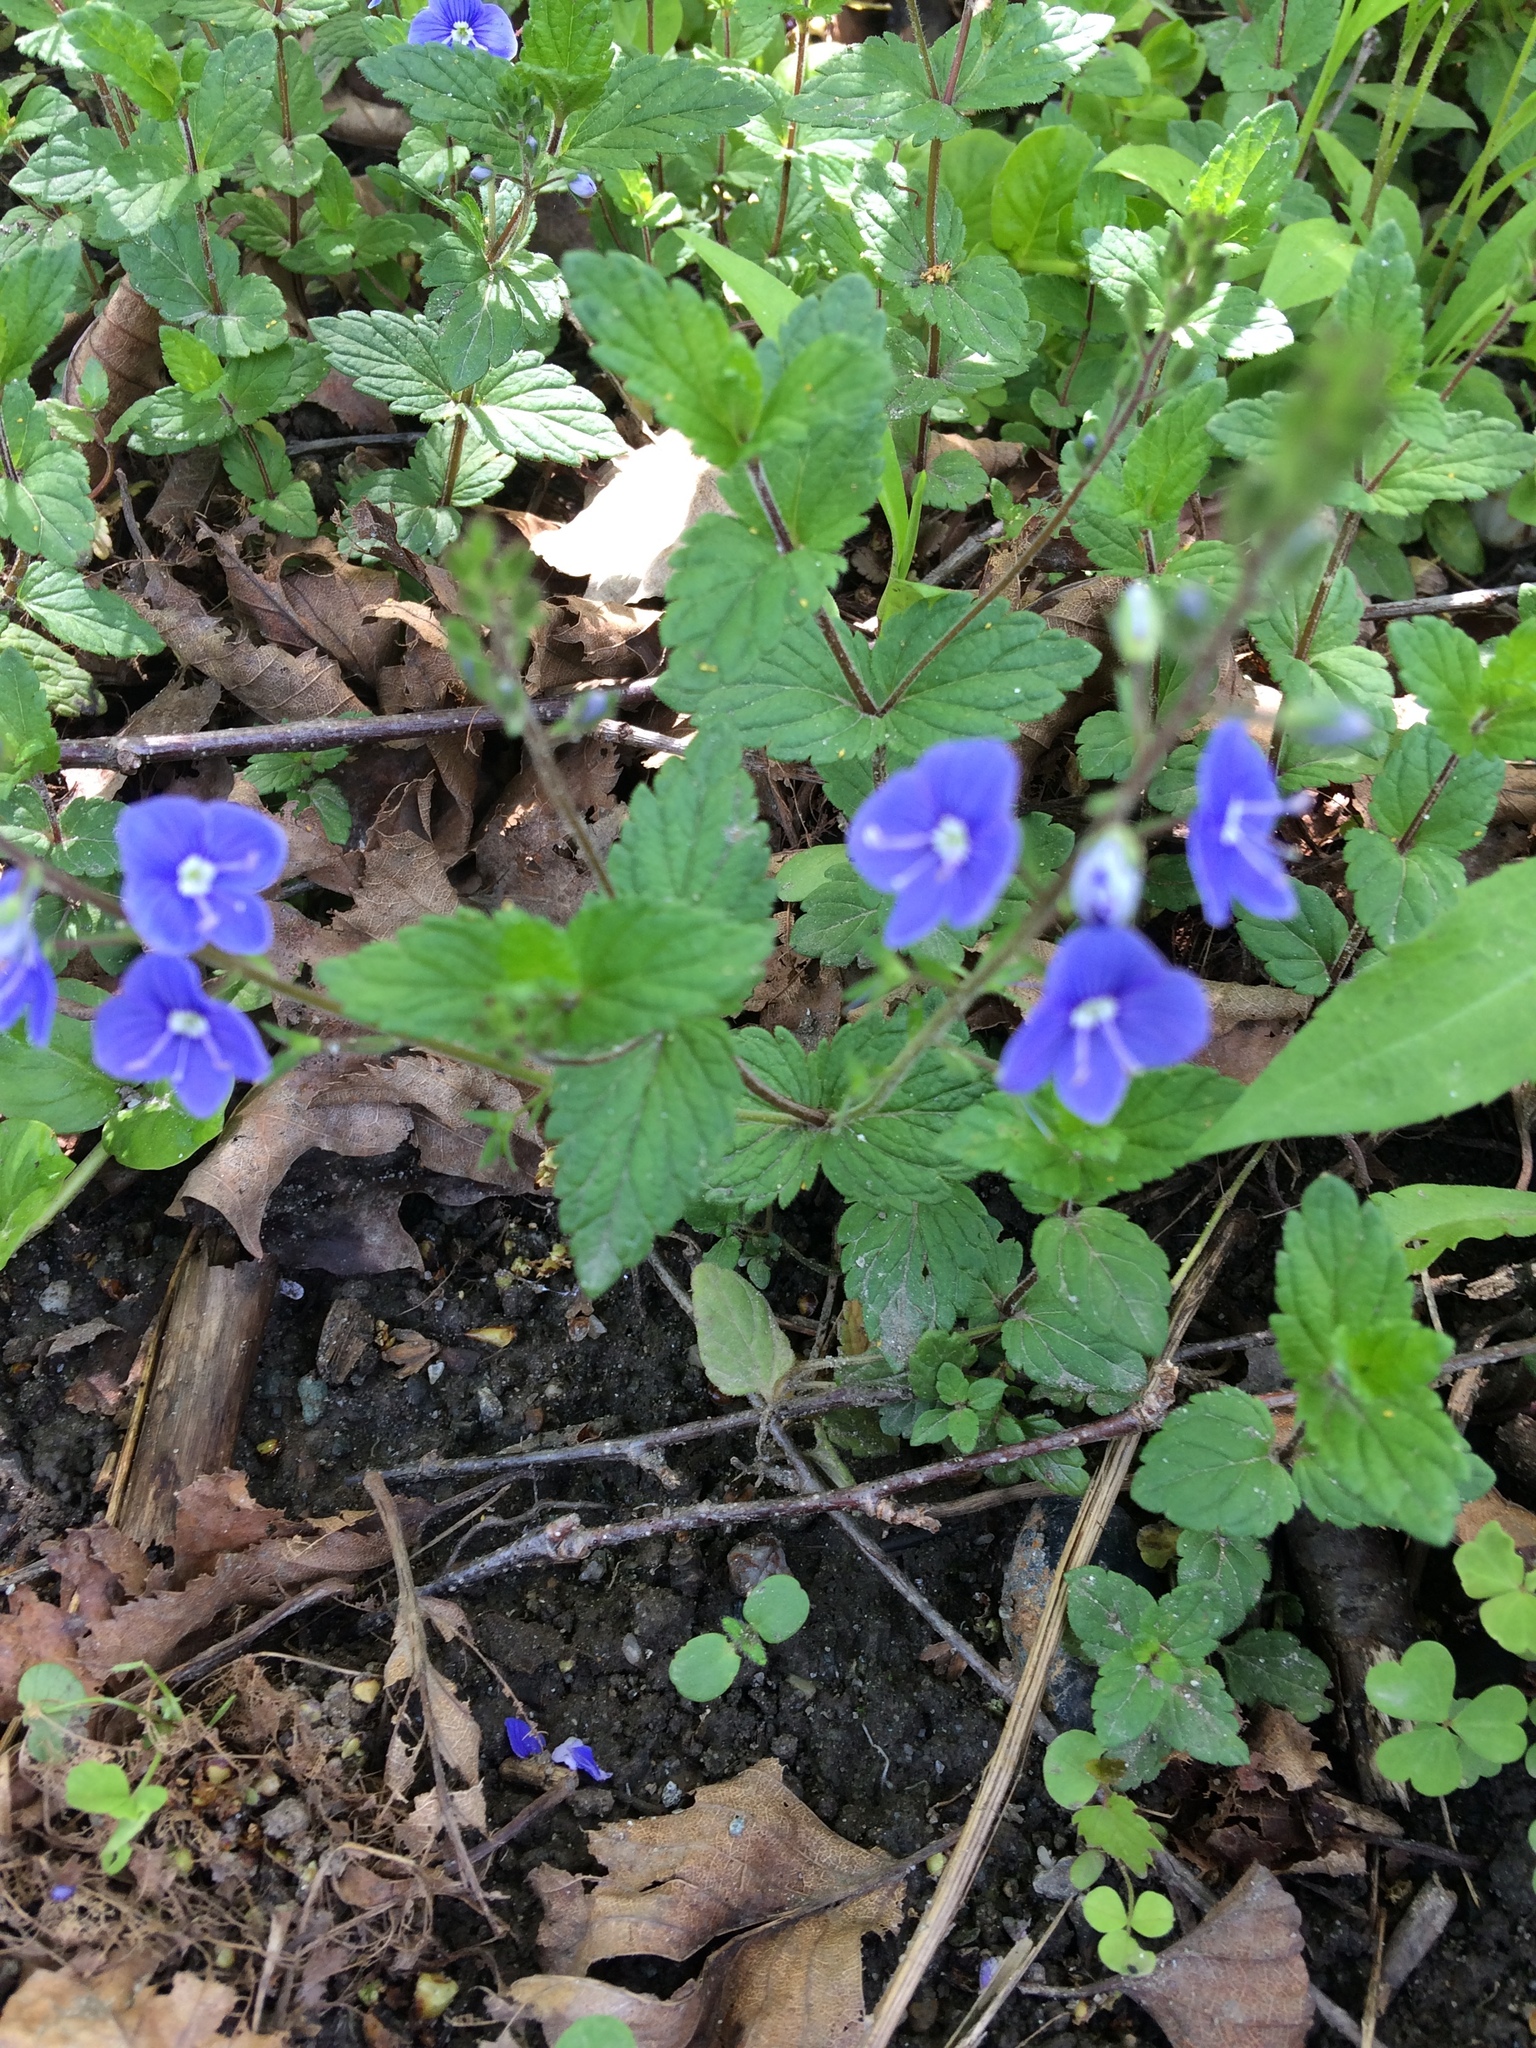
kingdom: Plantae
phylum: Tracheophyta
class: Magnoliopsida
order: Lamiales
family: Plantaginaceae
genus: Veronica
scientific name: Veronica chamaedrys
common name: Germander speedwell
